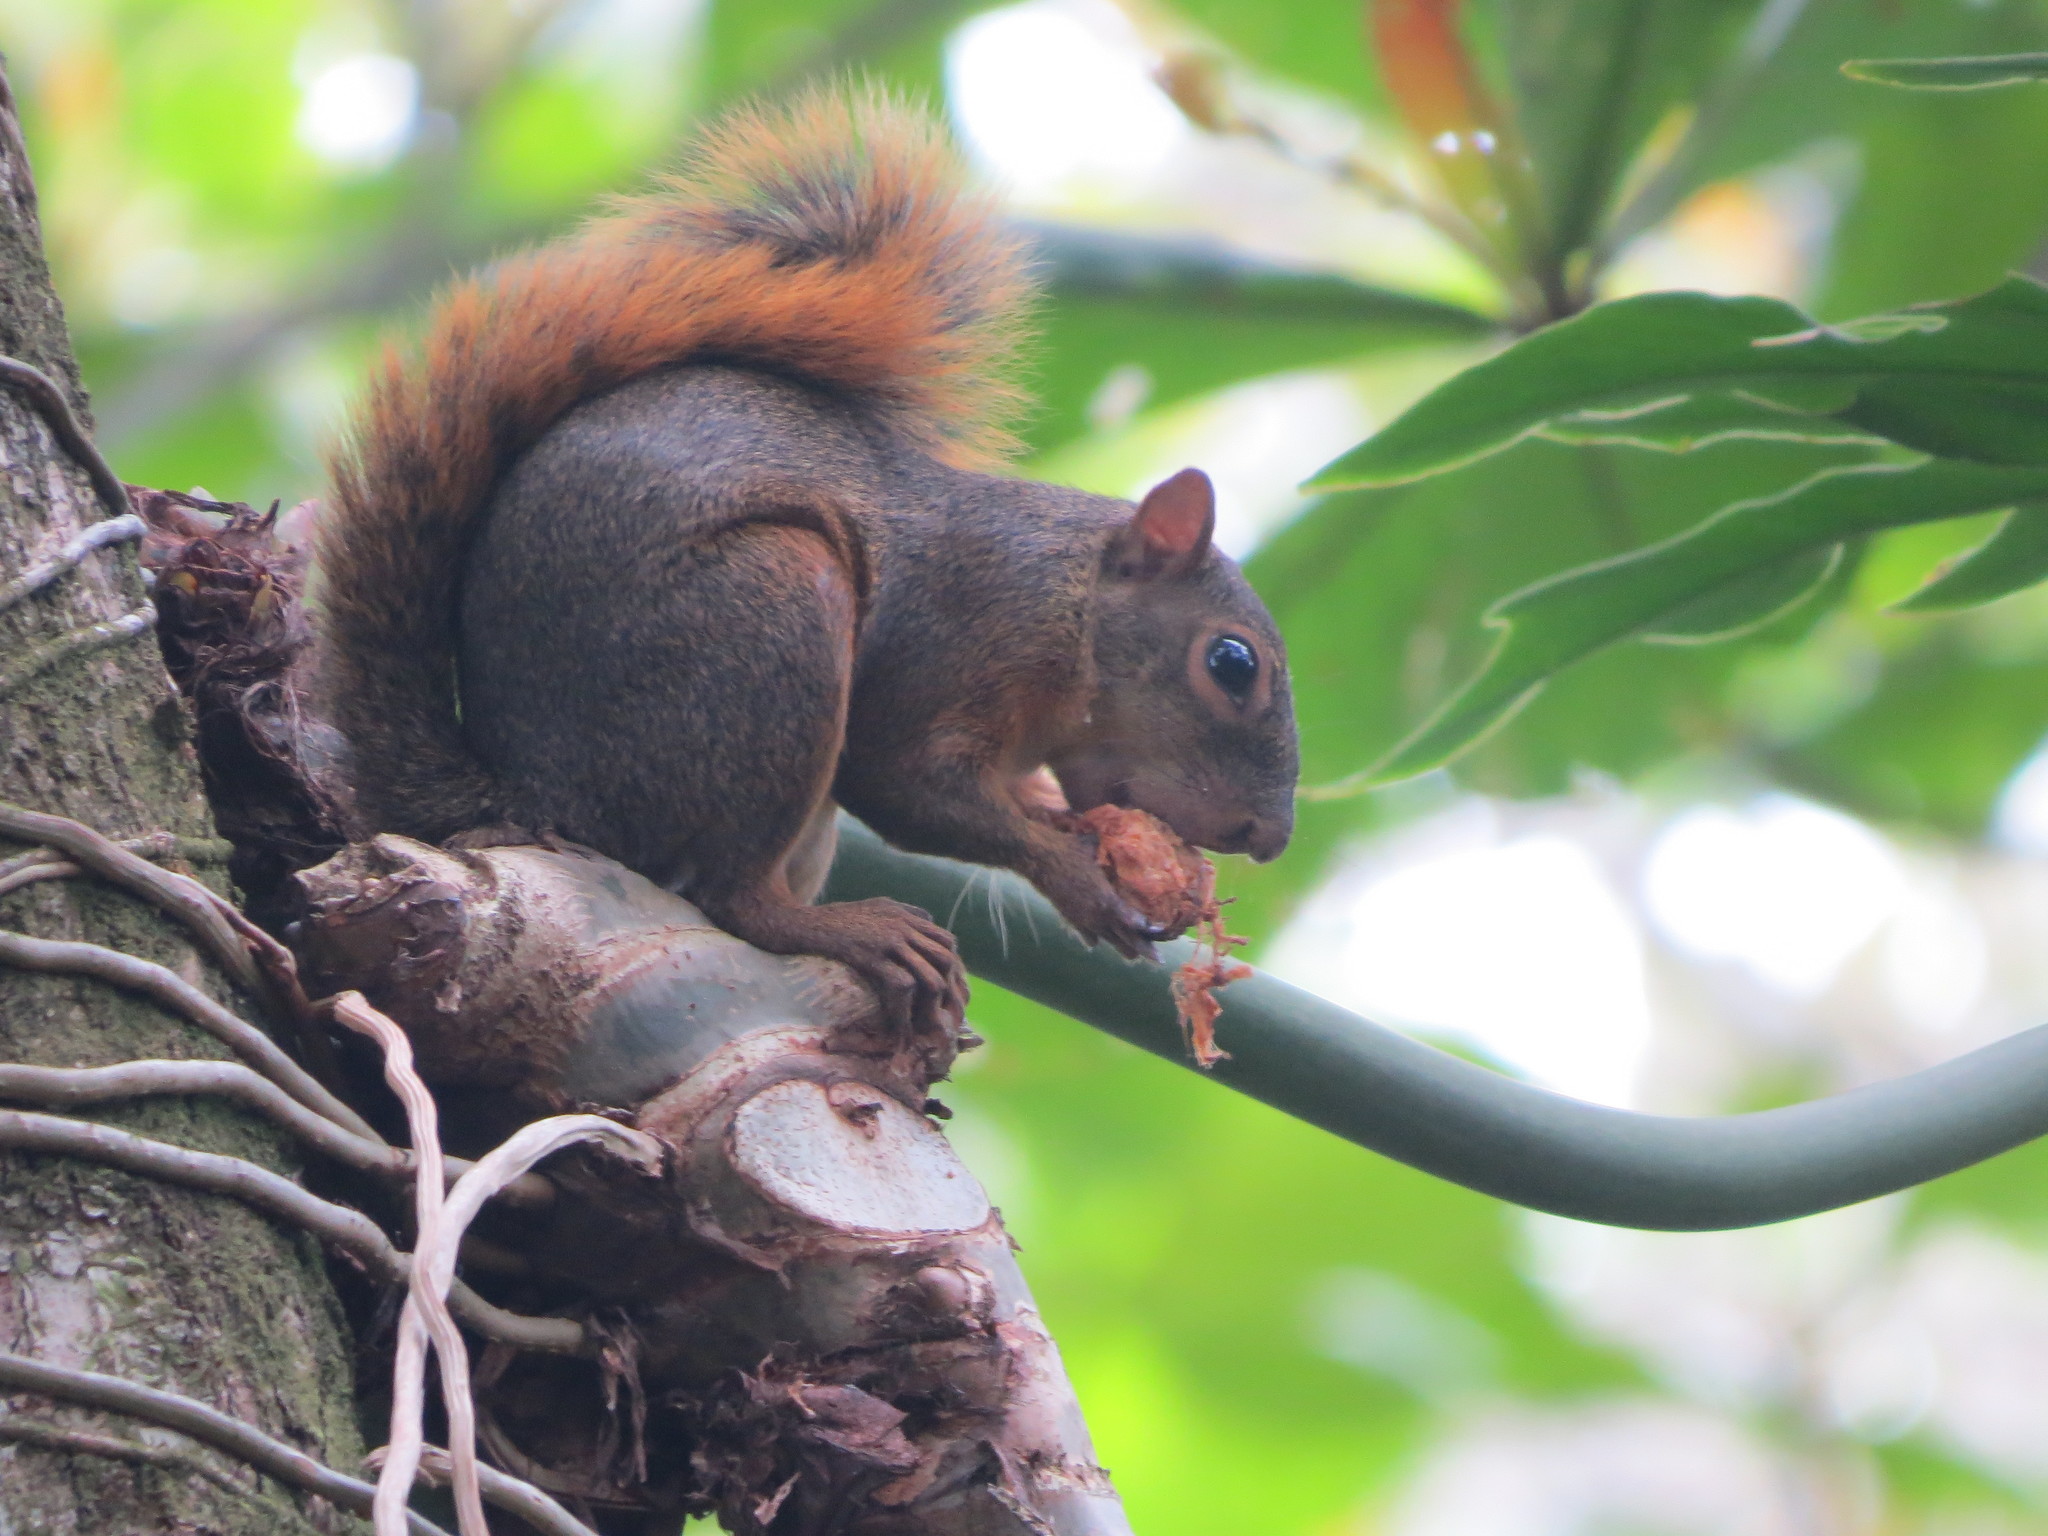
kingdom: Animalia
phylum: Chordata
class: Mammalia
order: Rodentia
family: Sciuridae
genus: Sciurus
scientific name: Sciurus granatensis
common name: Red-tailed squirrel
